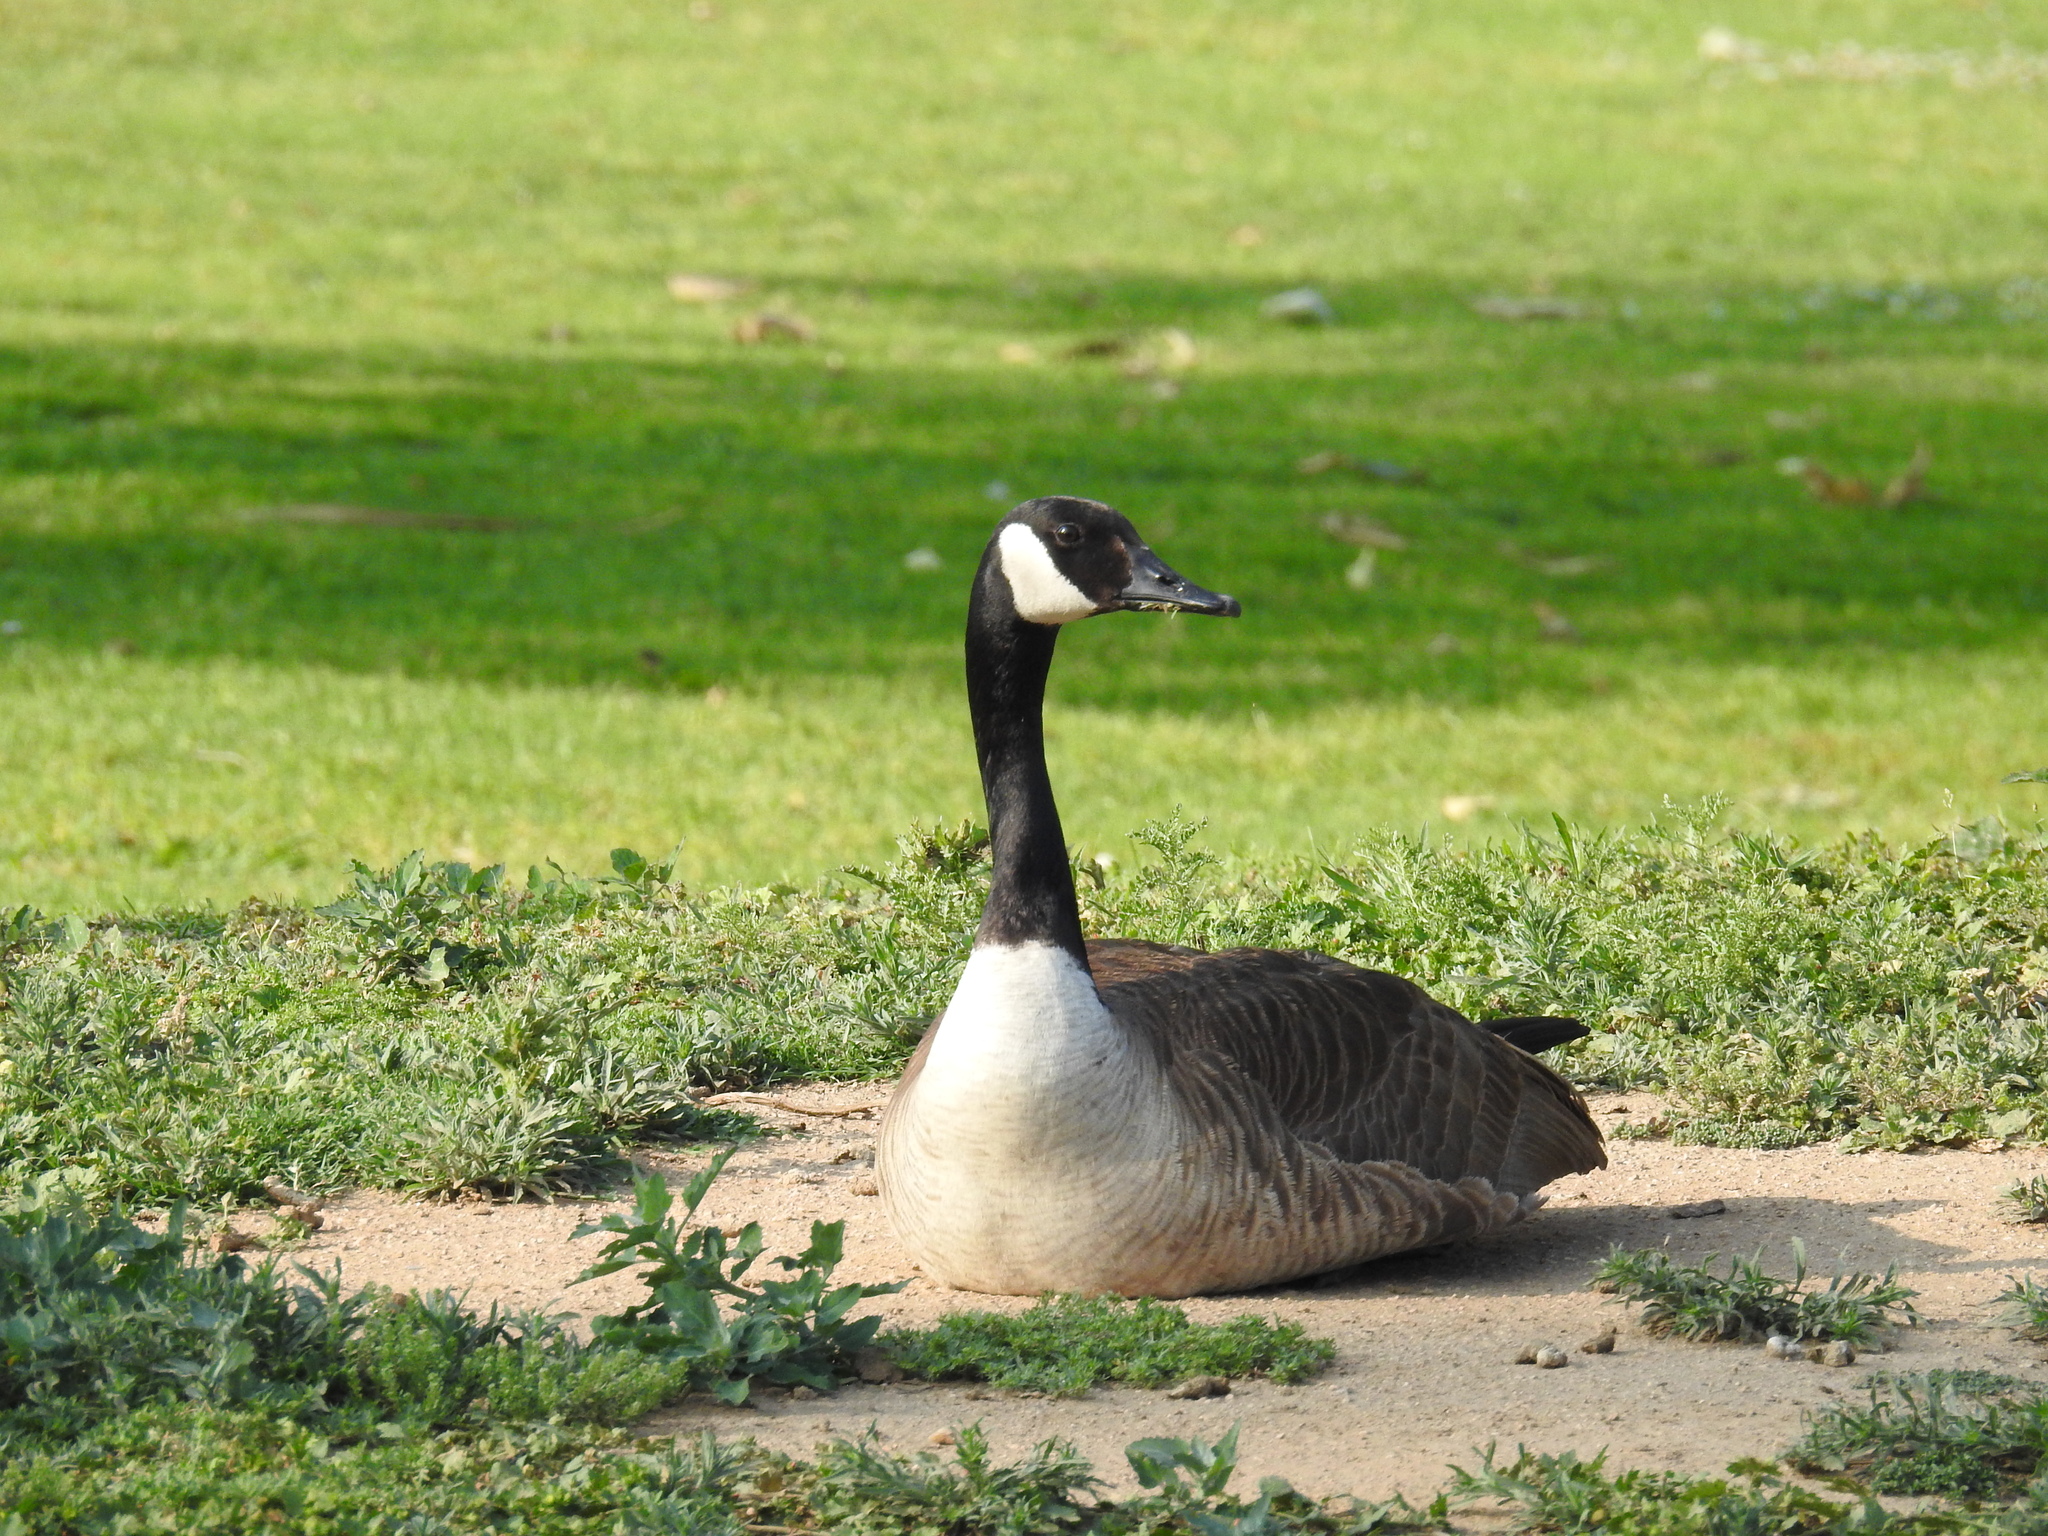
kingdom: Animalia
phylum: Chordata
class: Aves
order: Anseriformes
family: Anatidae
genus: Branta
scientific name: Branta canadensis
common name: Canada goose
